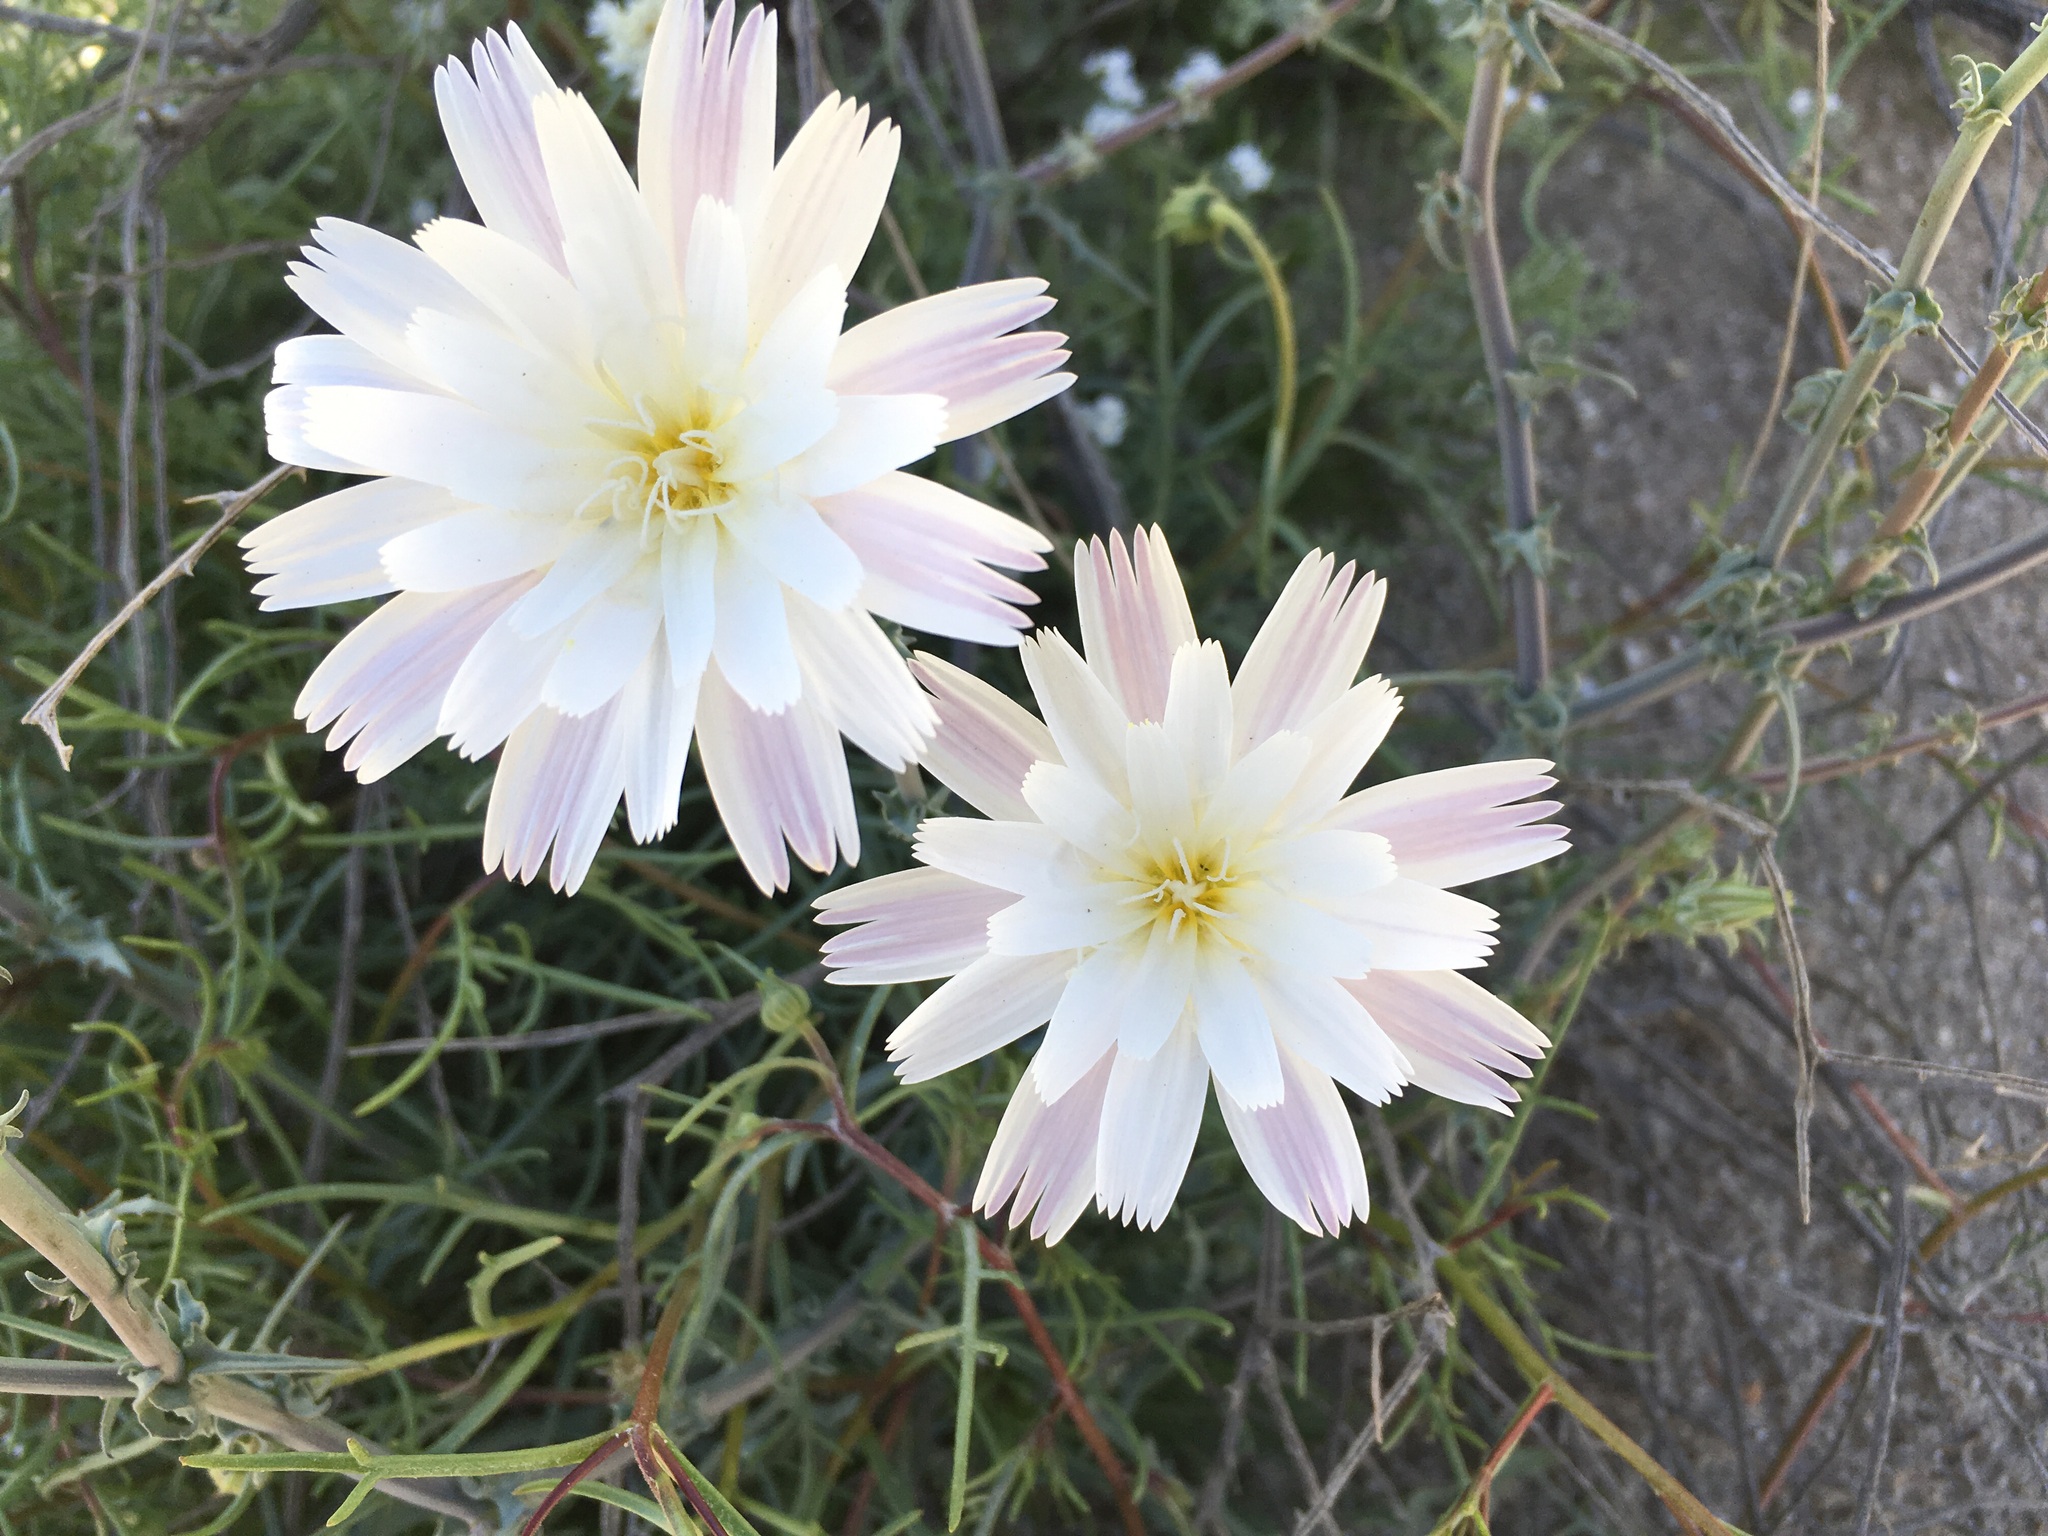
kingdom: Plantae
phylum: Tracheophyta
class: Magnoliopsida
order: Asterales
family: Asteraceae
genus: Rafinesquia
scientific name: Rafinesquia neomexicana
